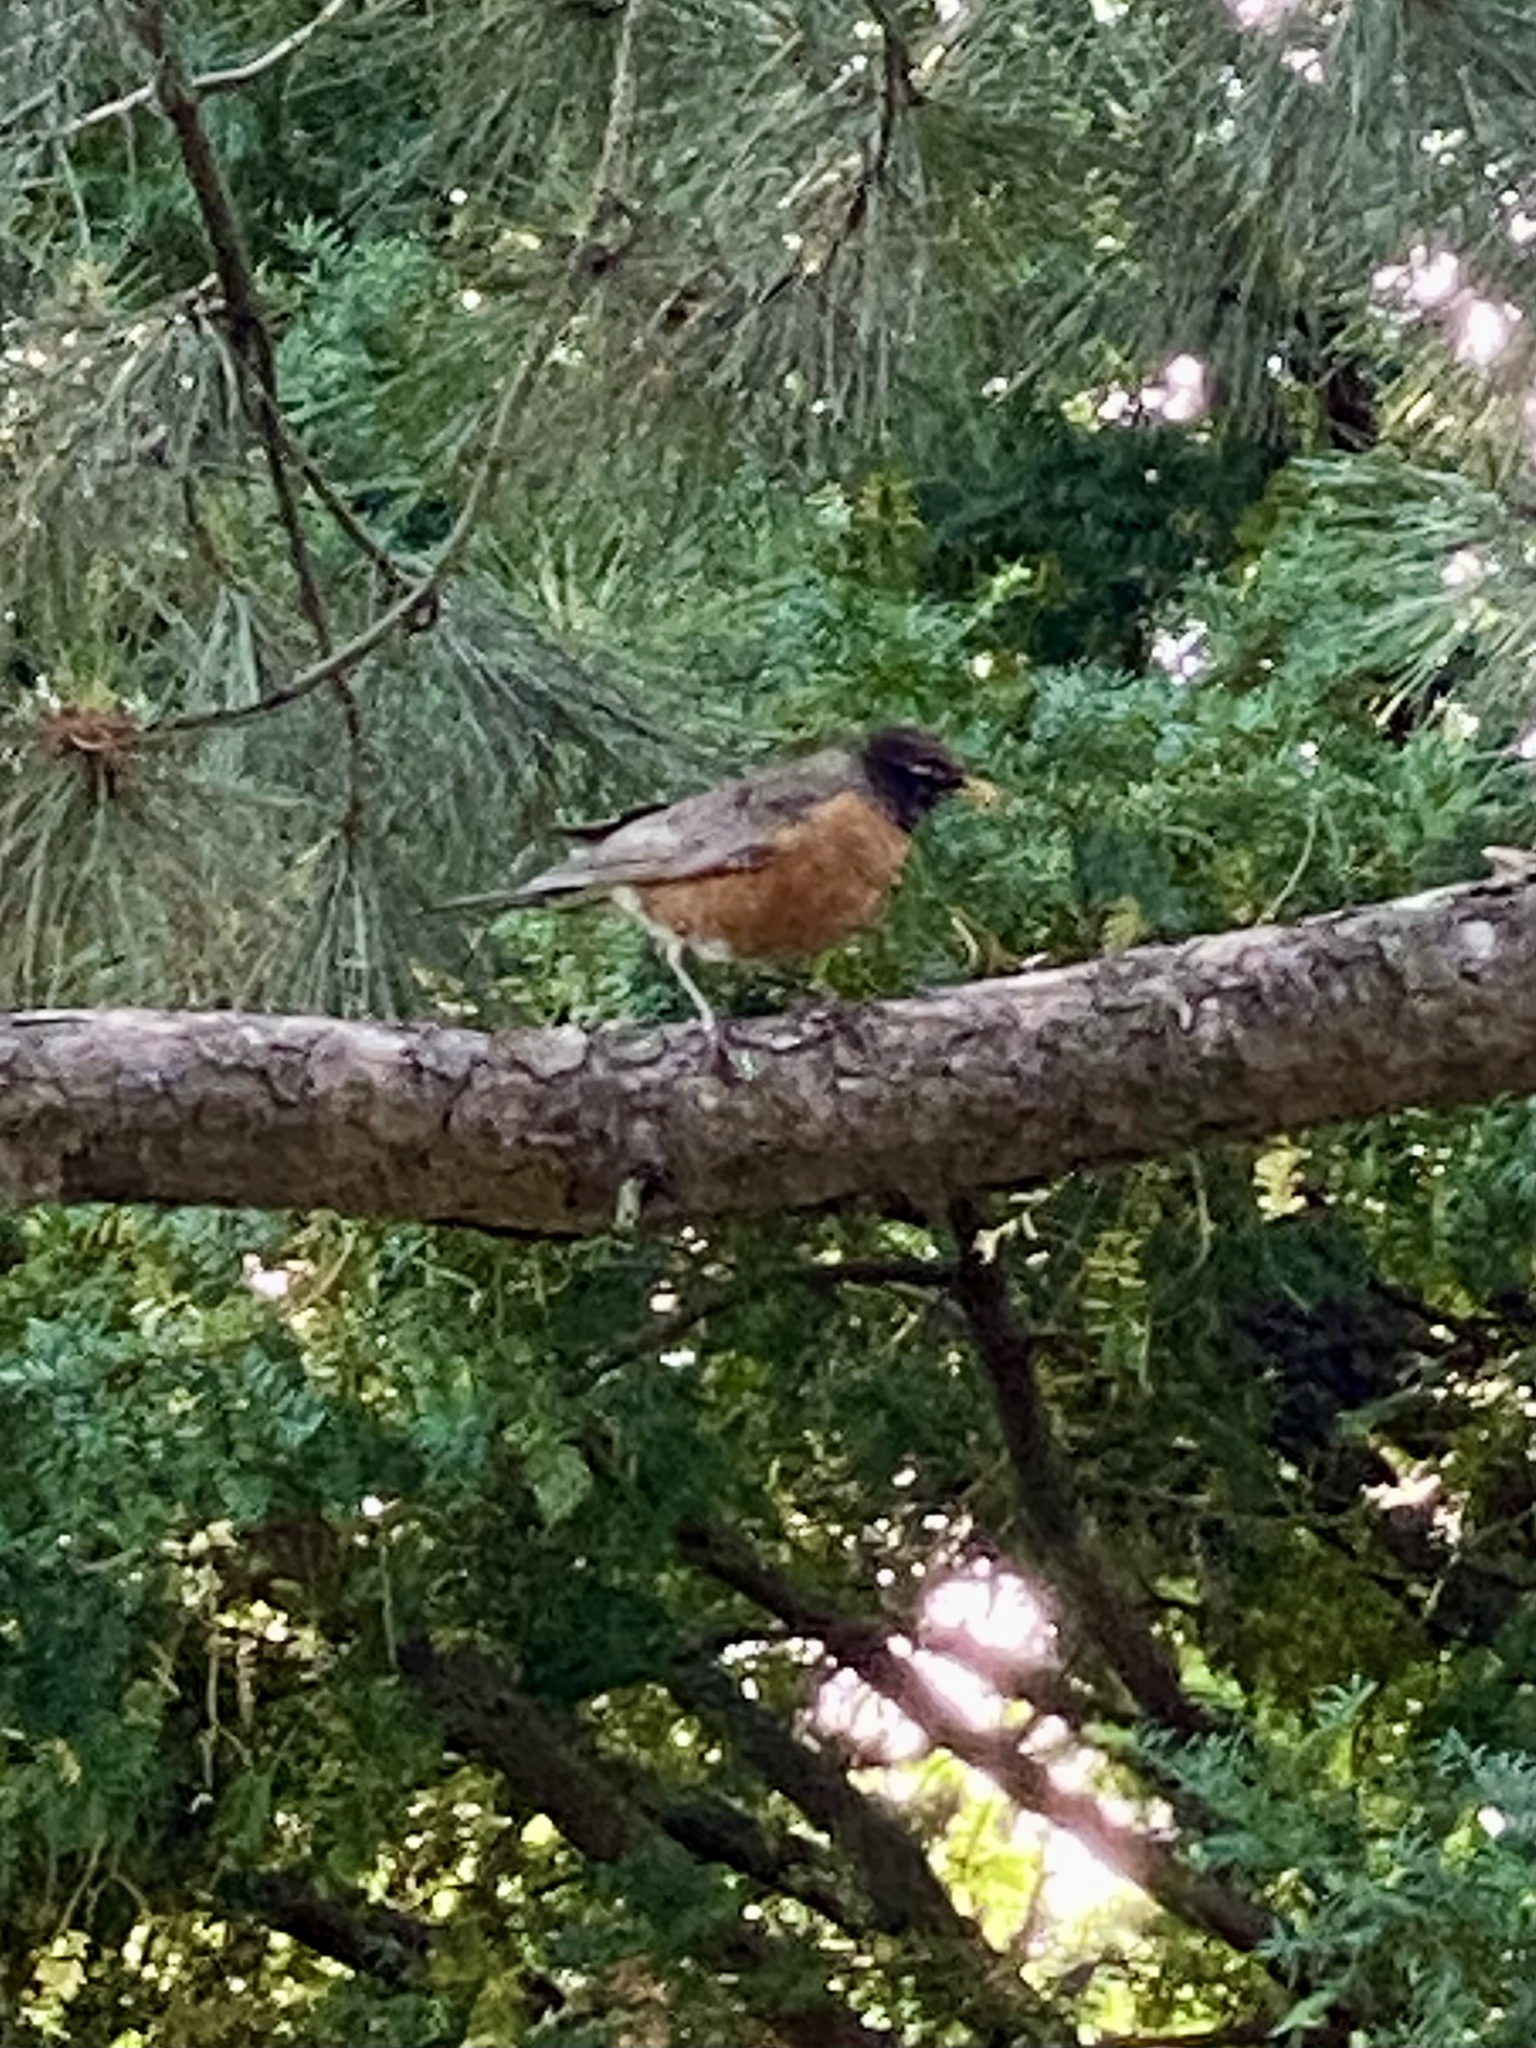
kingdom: Animalia
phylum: Chordata
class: Aves
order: Passeriformes
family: Turdidae
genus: Turdus
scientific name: Turdus migratorius
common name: American robin
